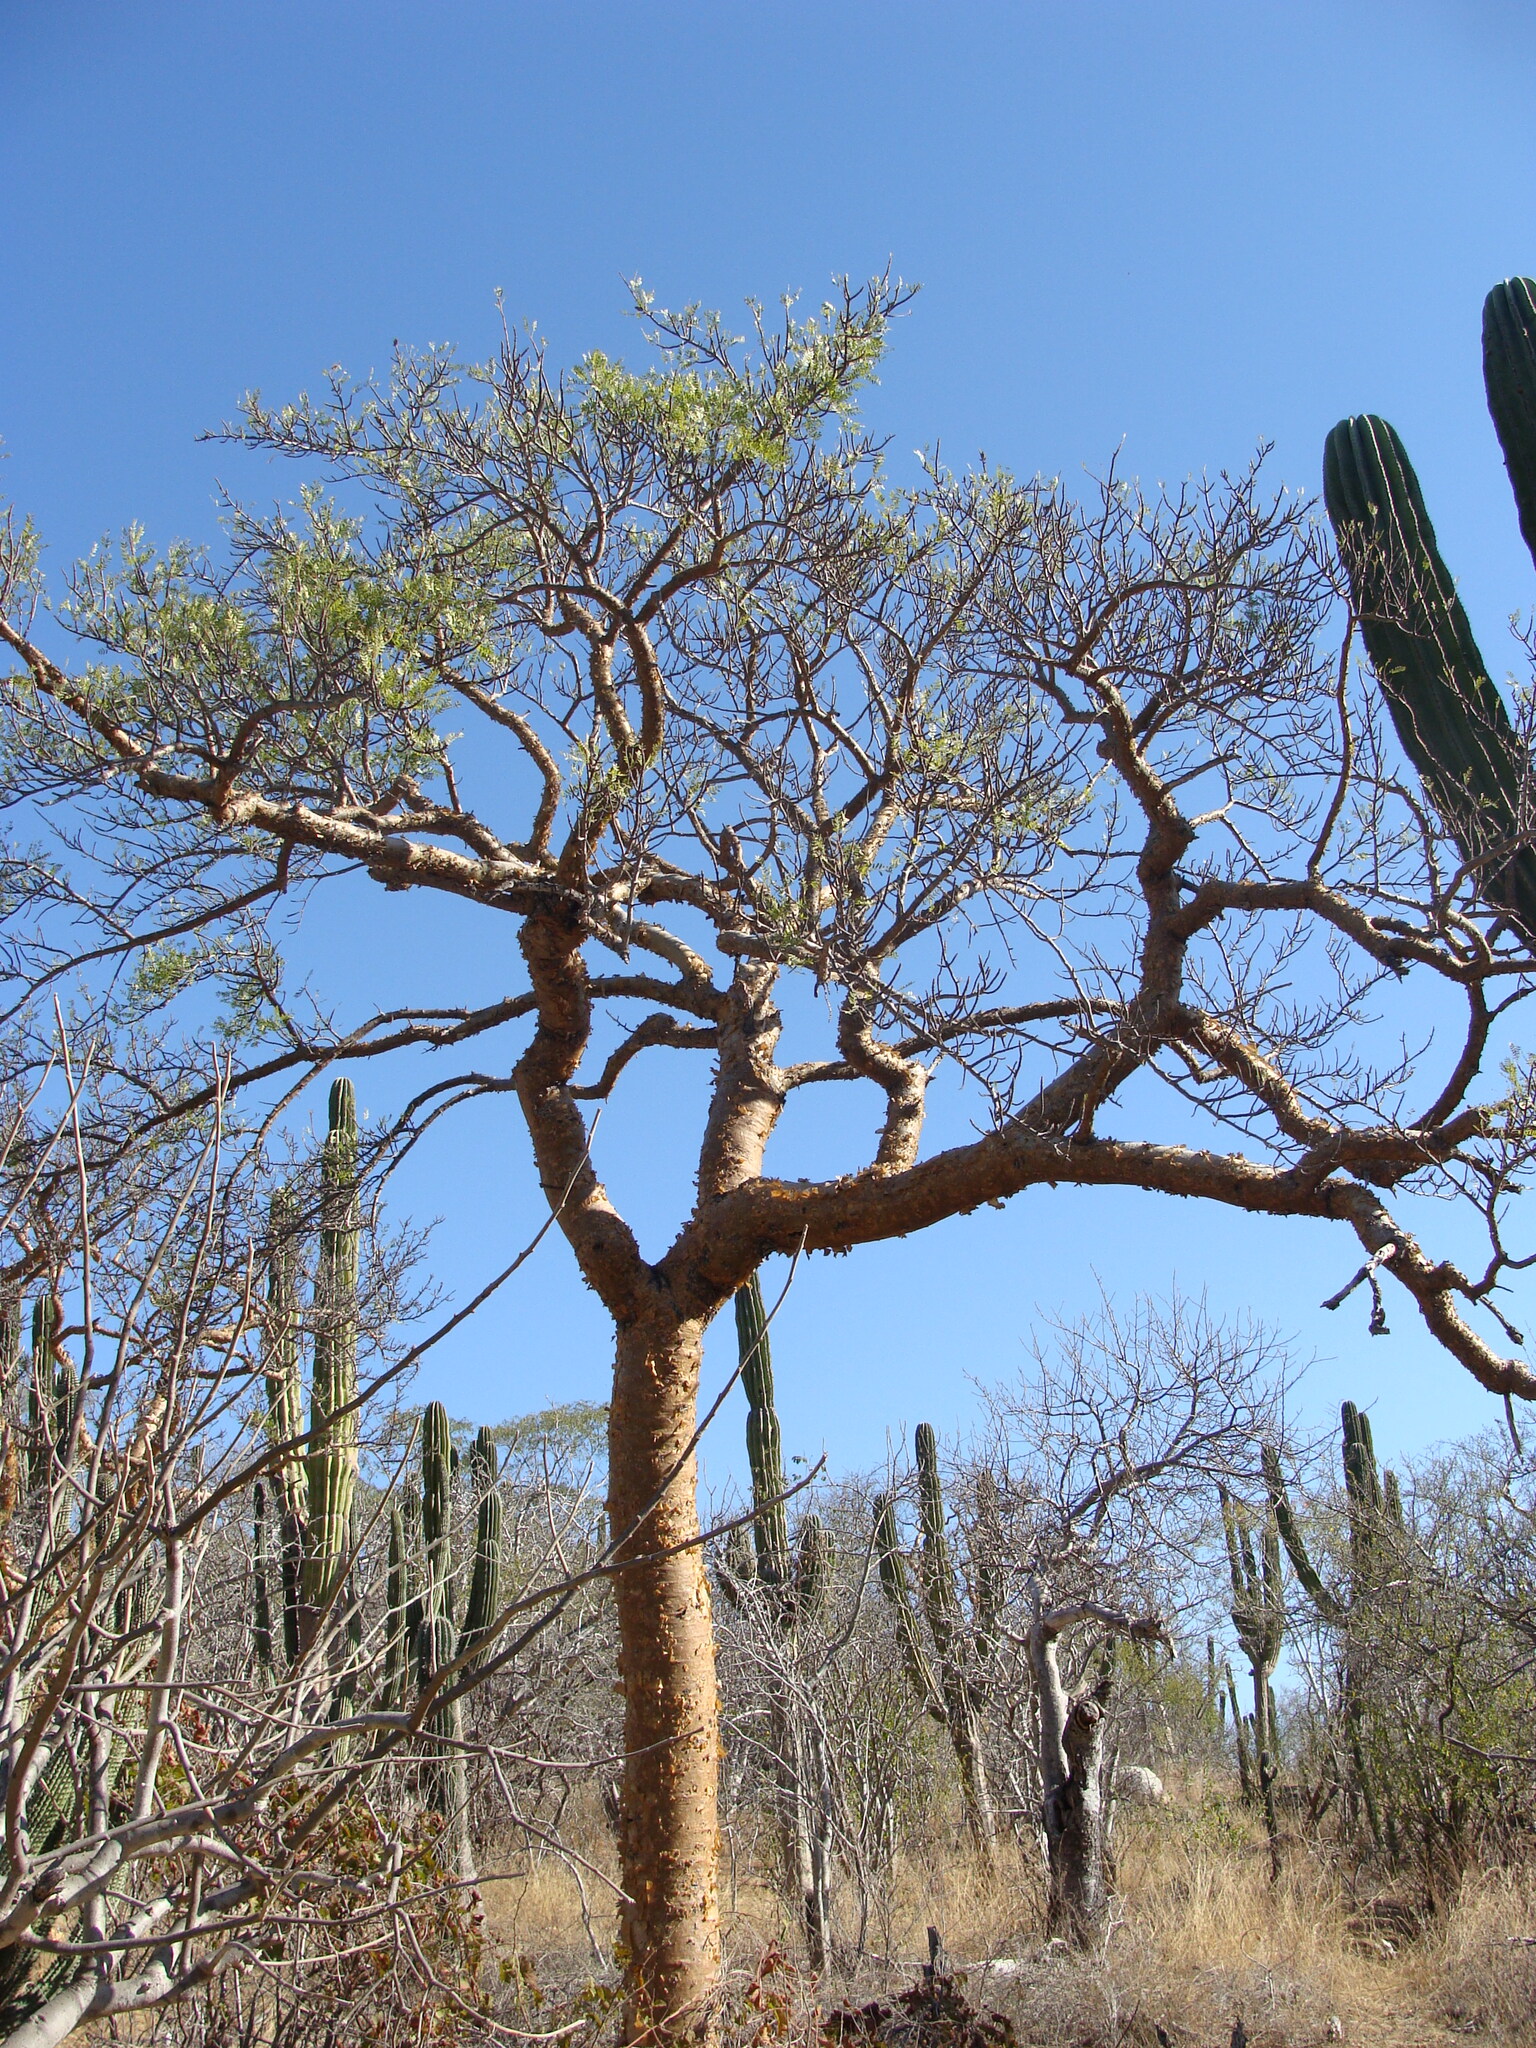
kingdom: Plantae
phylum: Tracheophyta
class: Magnoliopsida
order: Sapindales
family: Burseraceae
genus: Bursera
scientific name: Bursera microphylla
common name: Elephant tree
